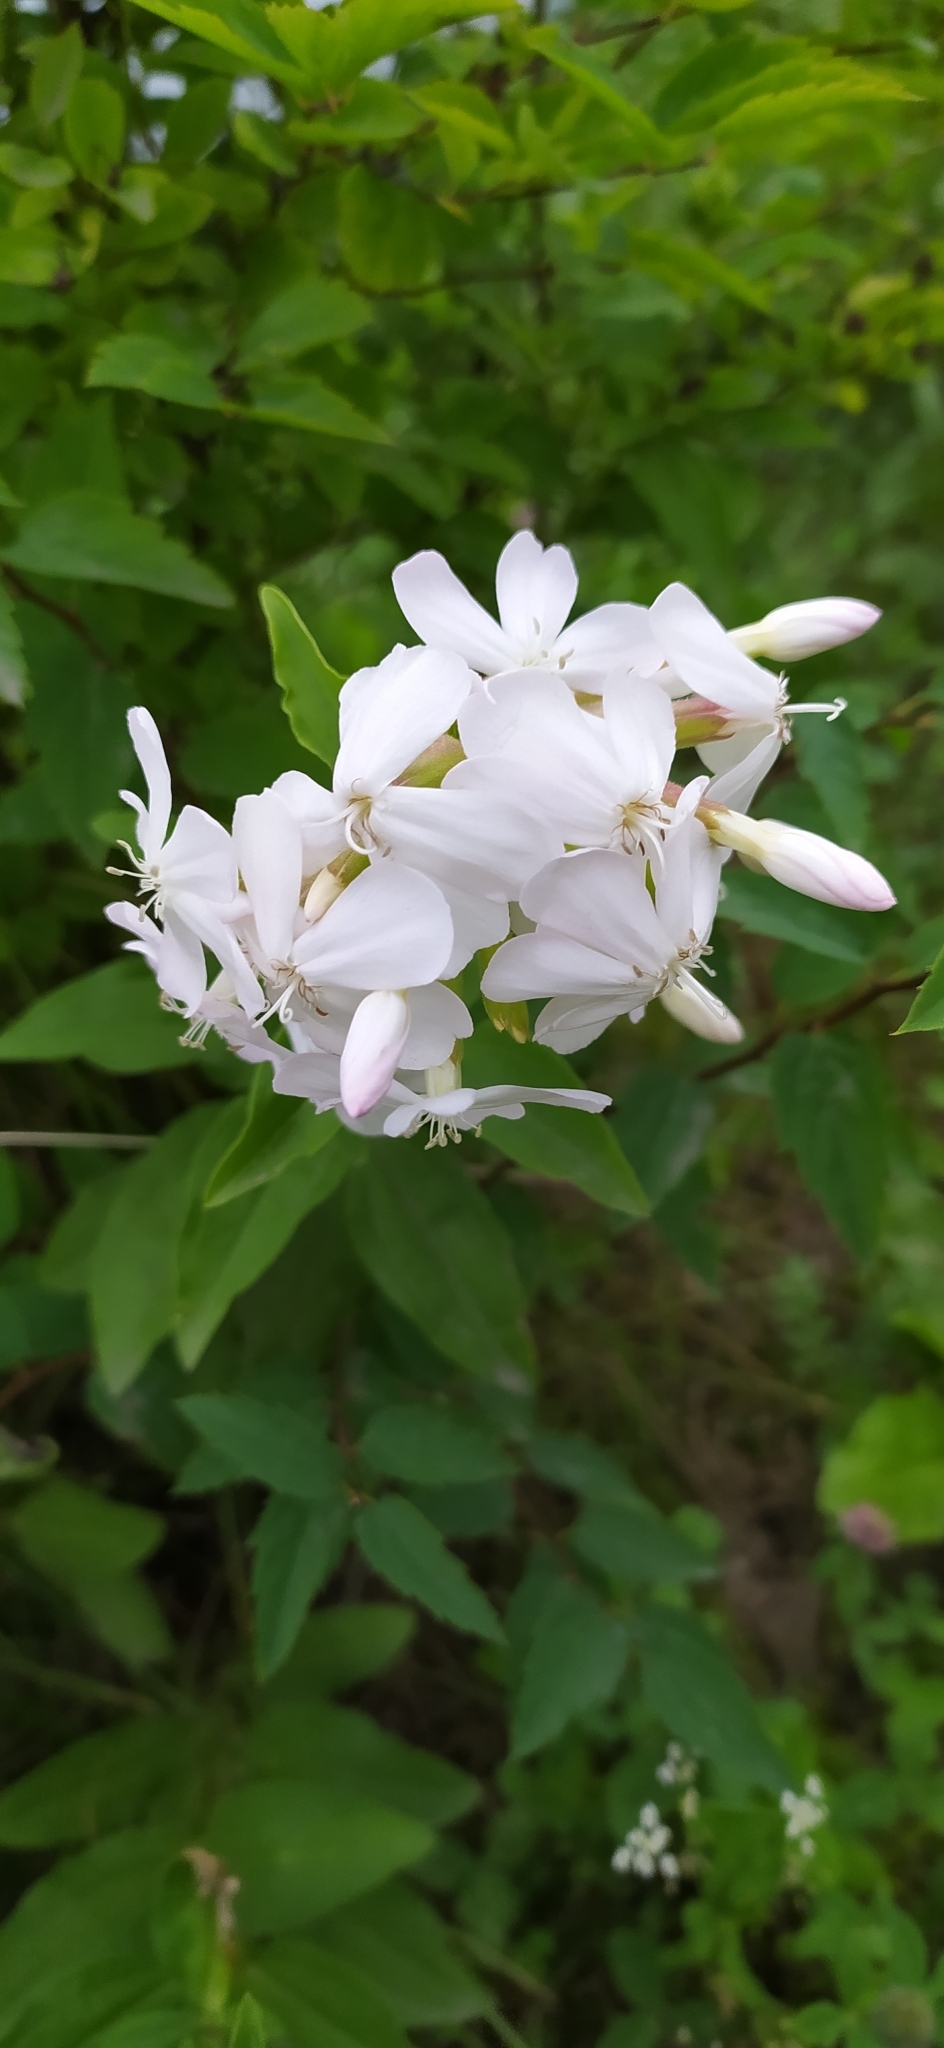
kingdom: Plantae
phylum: Tracheophyta
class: Magnoliopsida
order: Caryophyllales
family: Caryophyllaceae
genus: Saponaria
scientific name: Saponaria officinalis
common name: Soapwort
